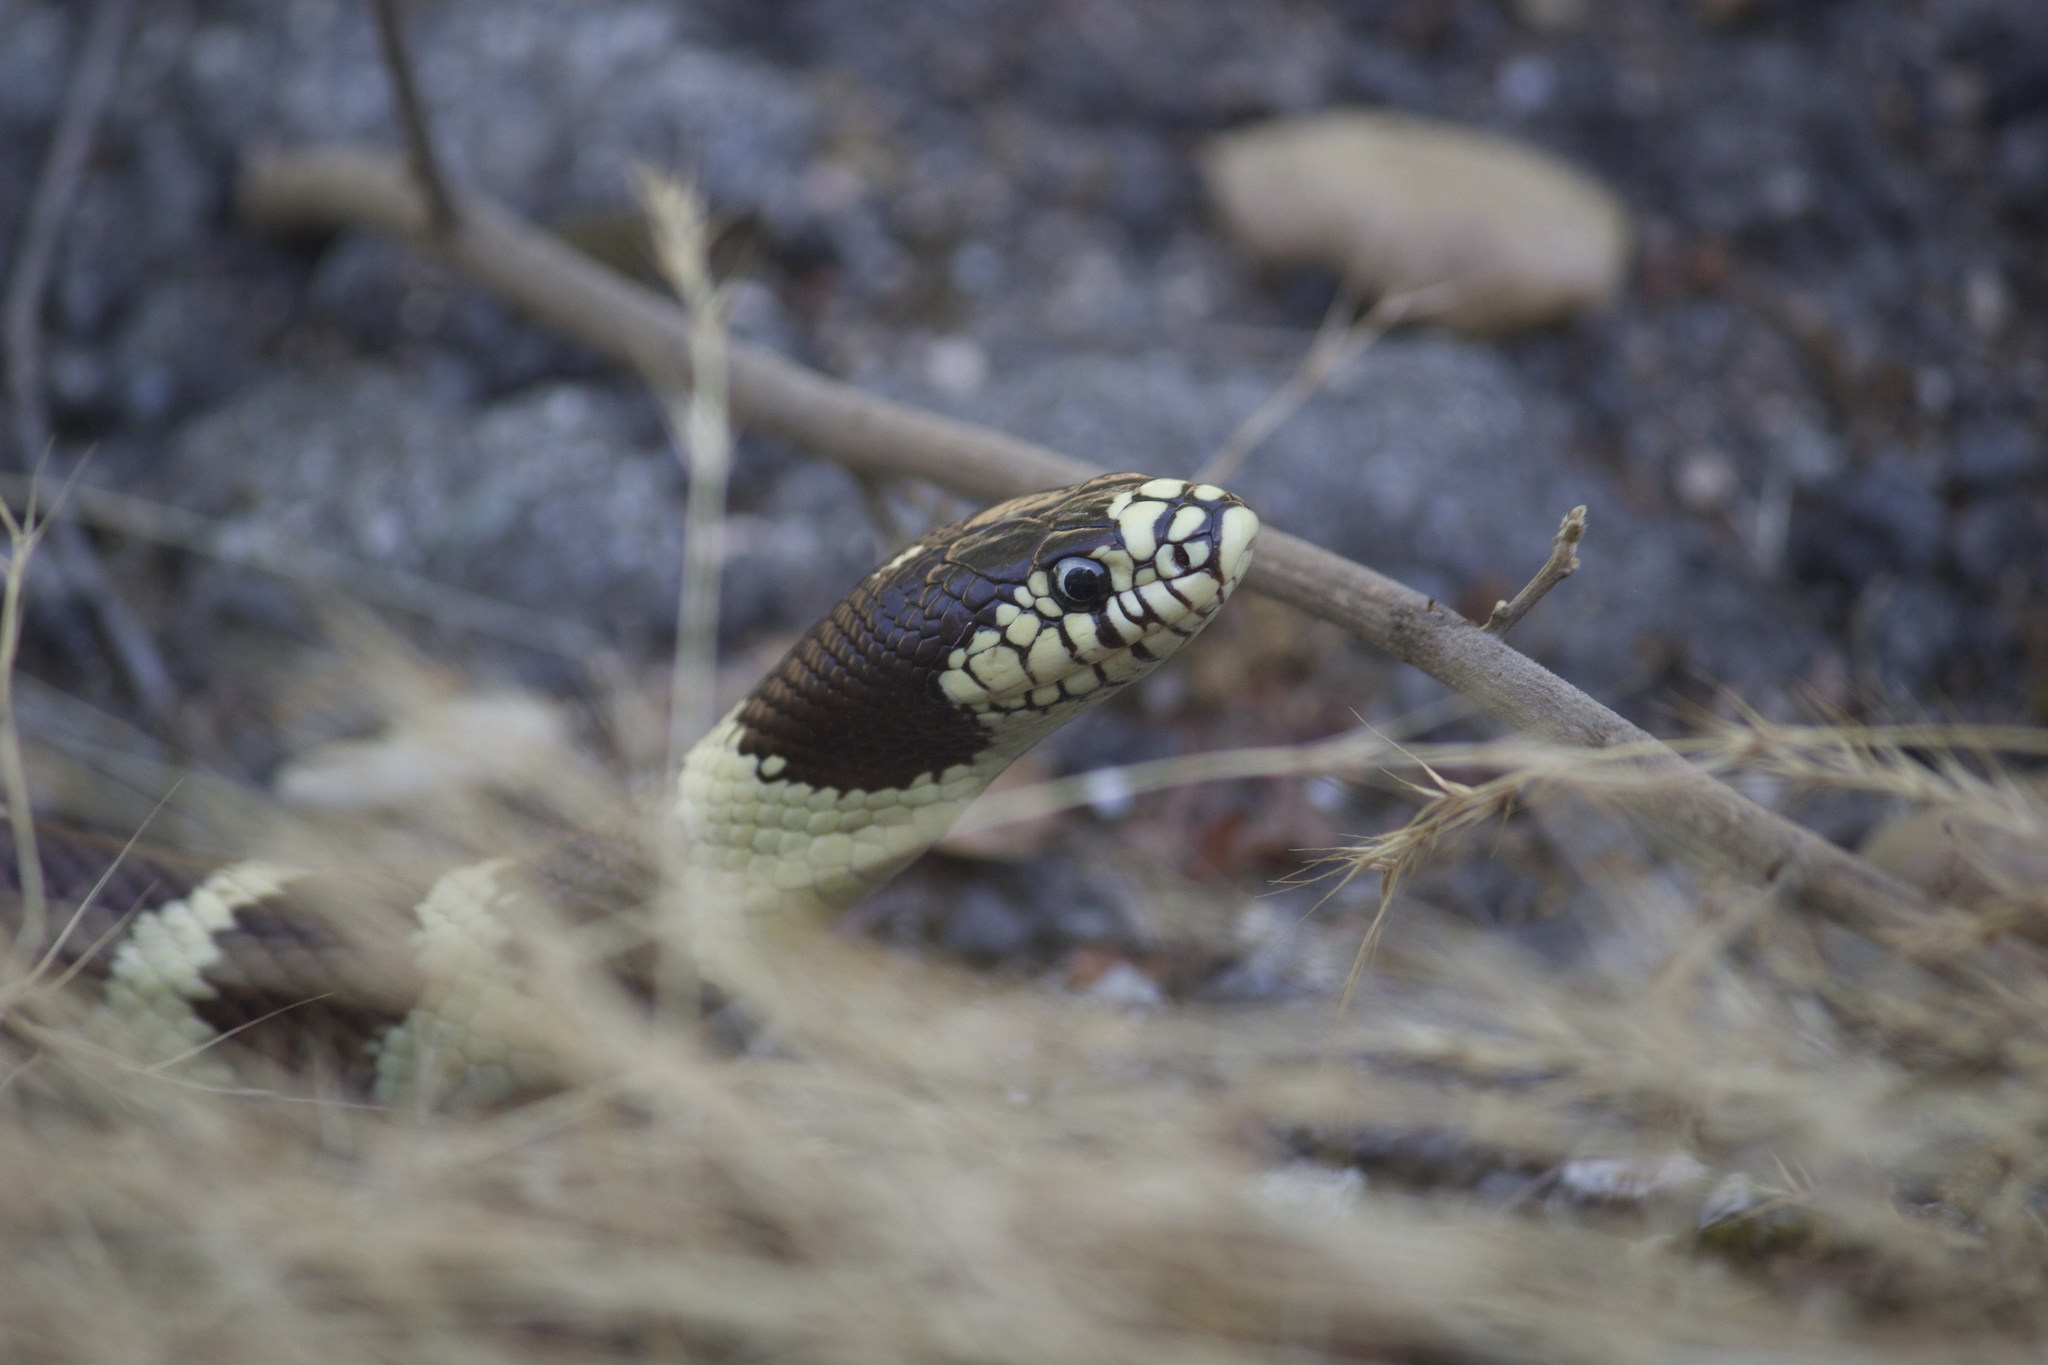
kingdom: Animalia
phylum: Chordata
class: Squamata
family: Colubridae
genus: Lampropeltis
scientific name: Lampropeltis californiae
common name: California kingsnake
